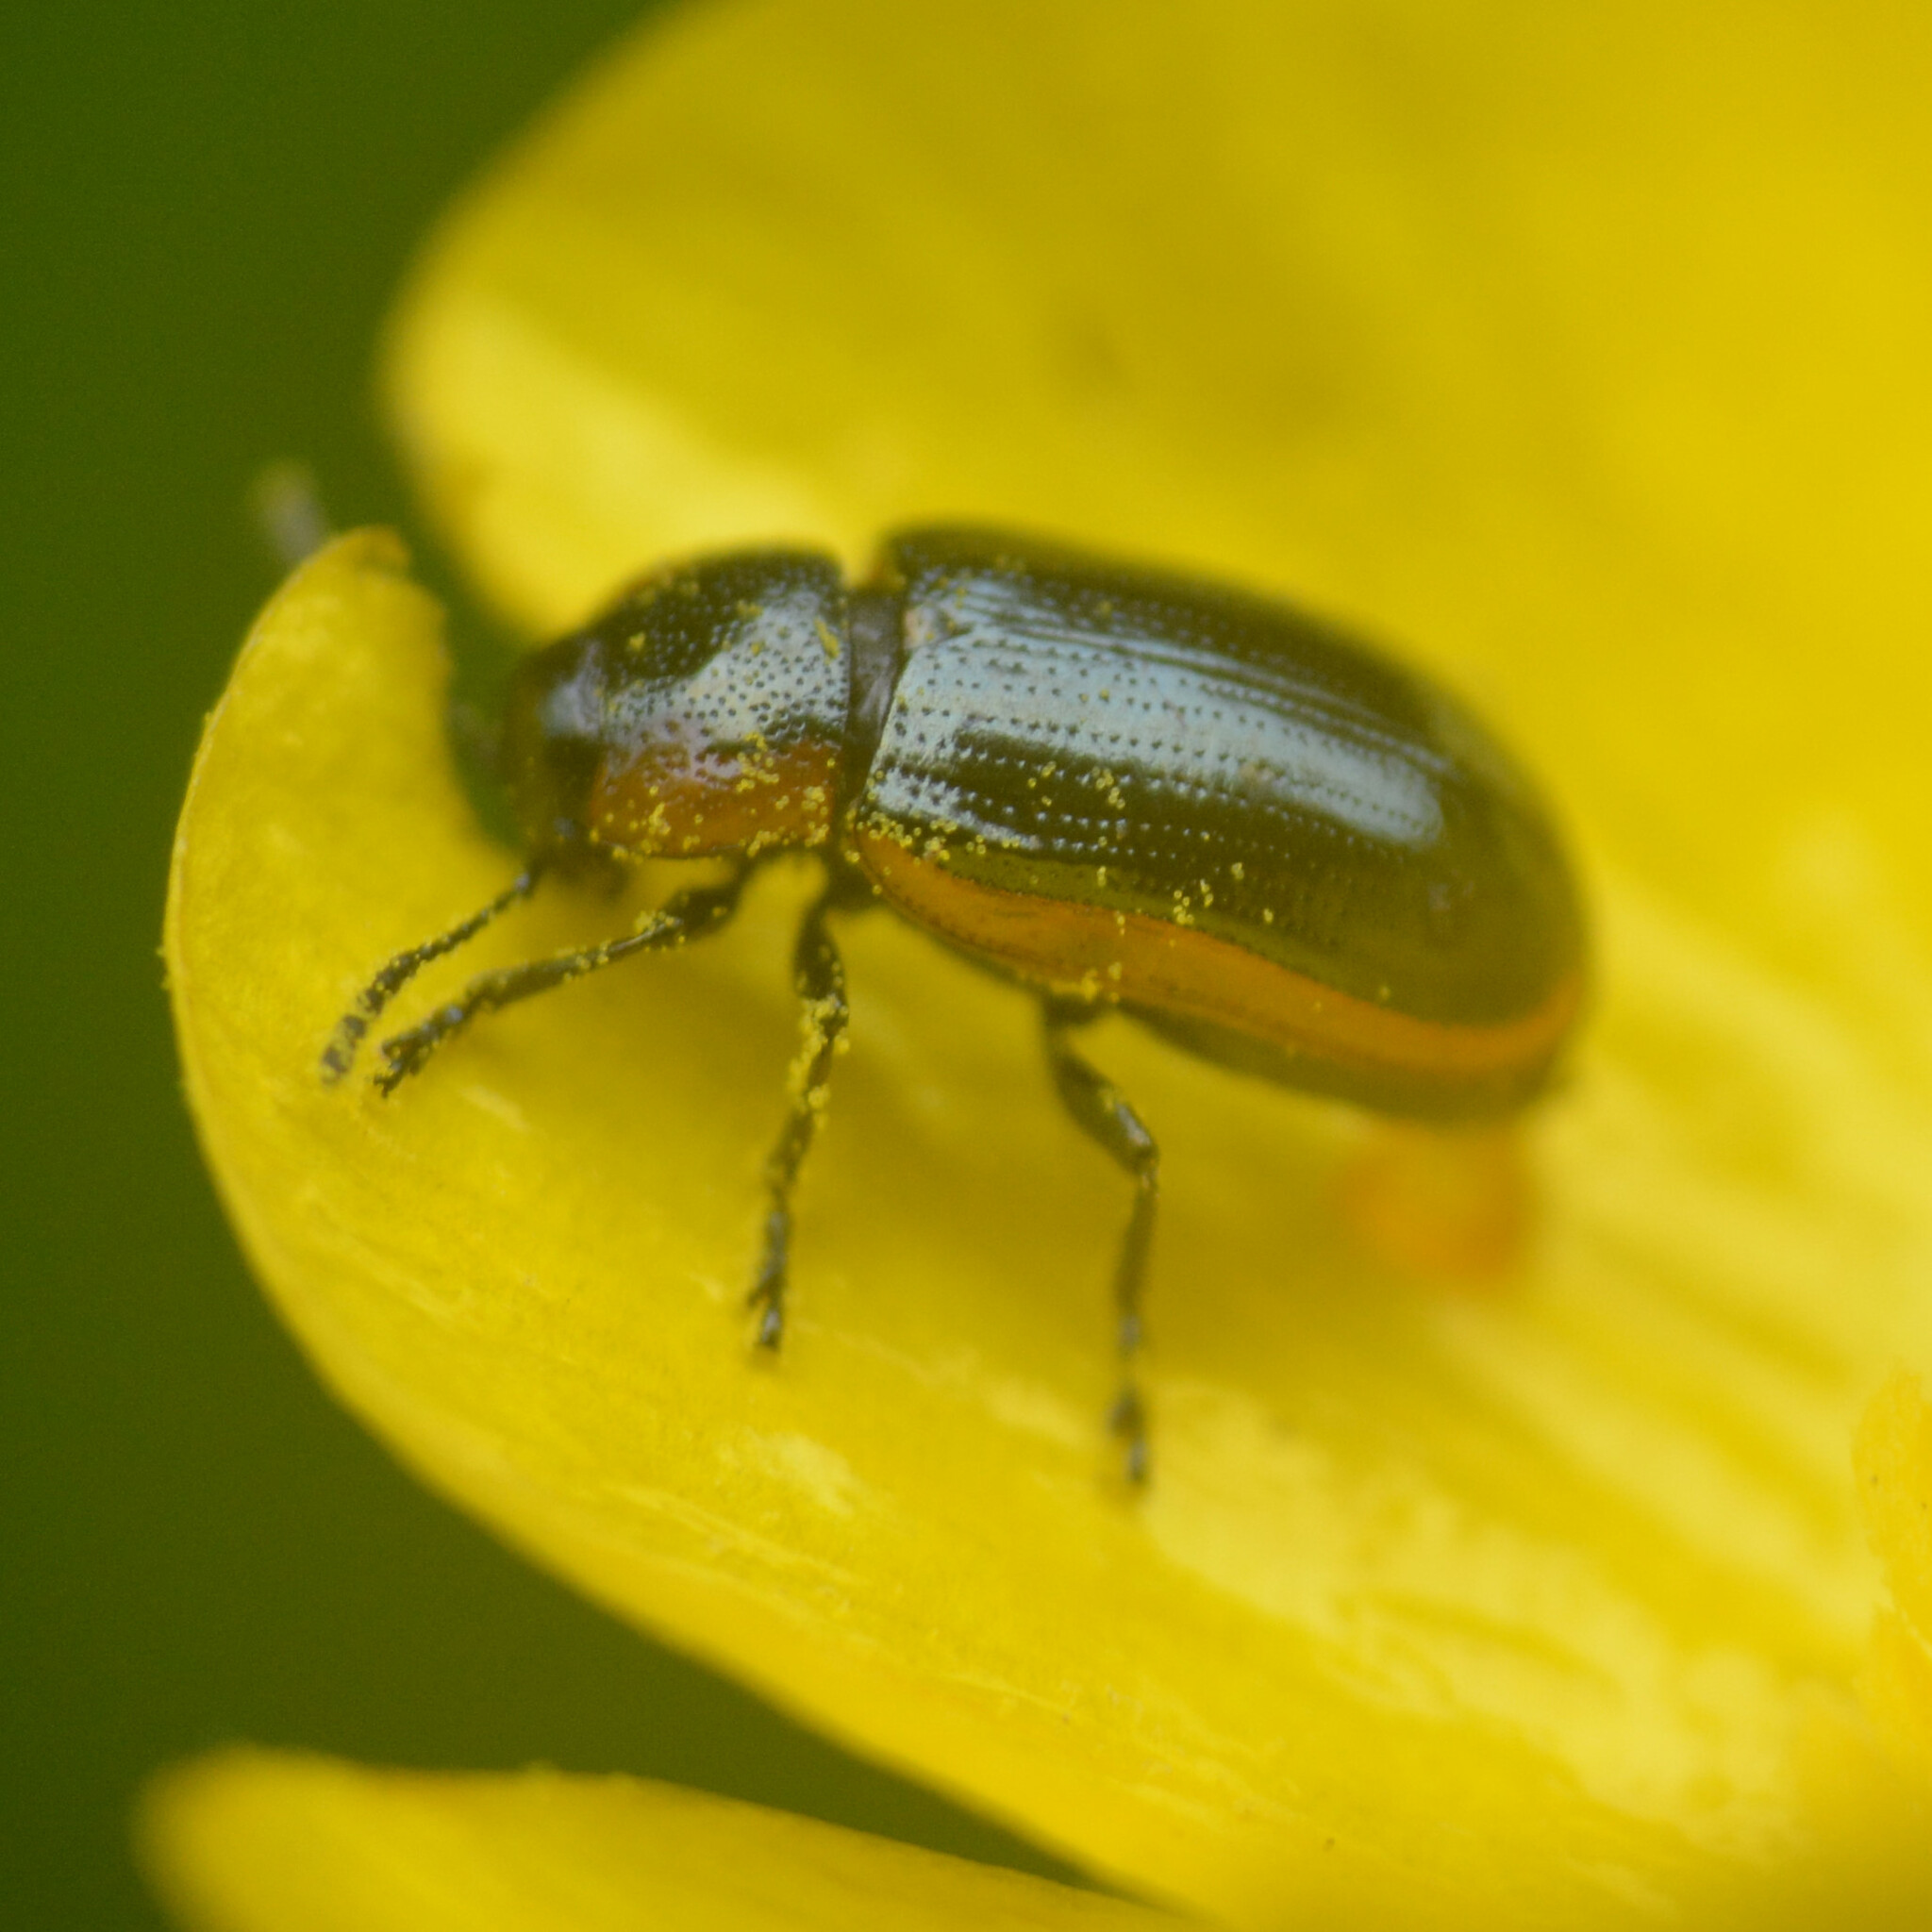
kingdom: Animalia
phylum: Arthropoda
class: Insecta
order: Coleoptera
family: Chrysomelidae
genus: Prasocuris
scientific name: Prasocuris marginella
